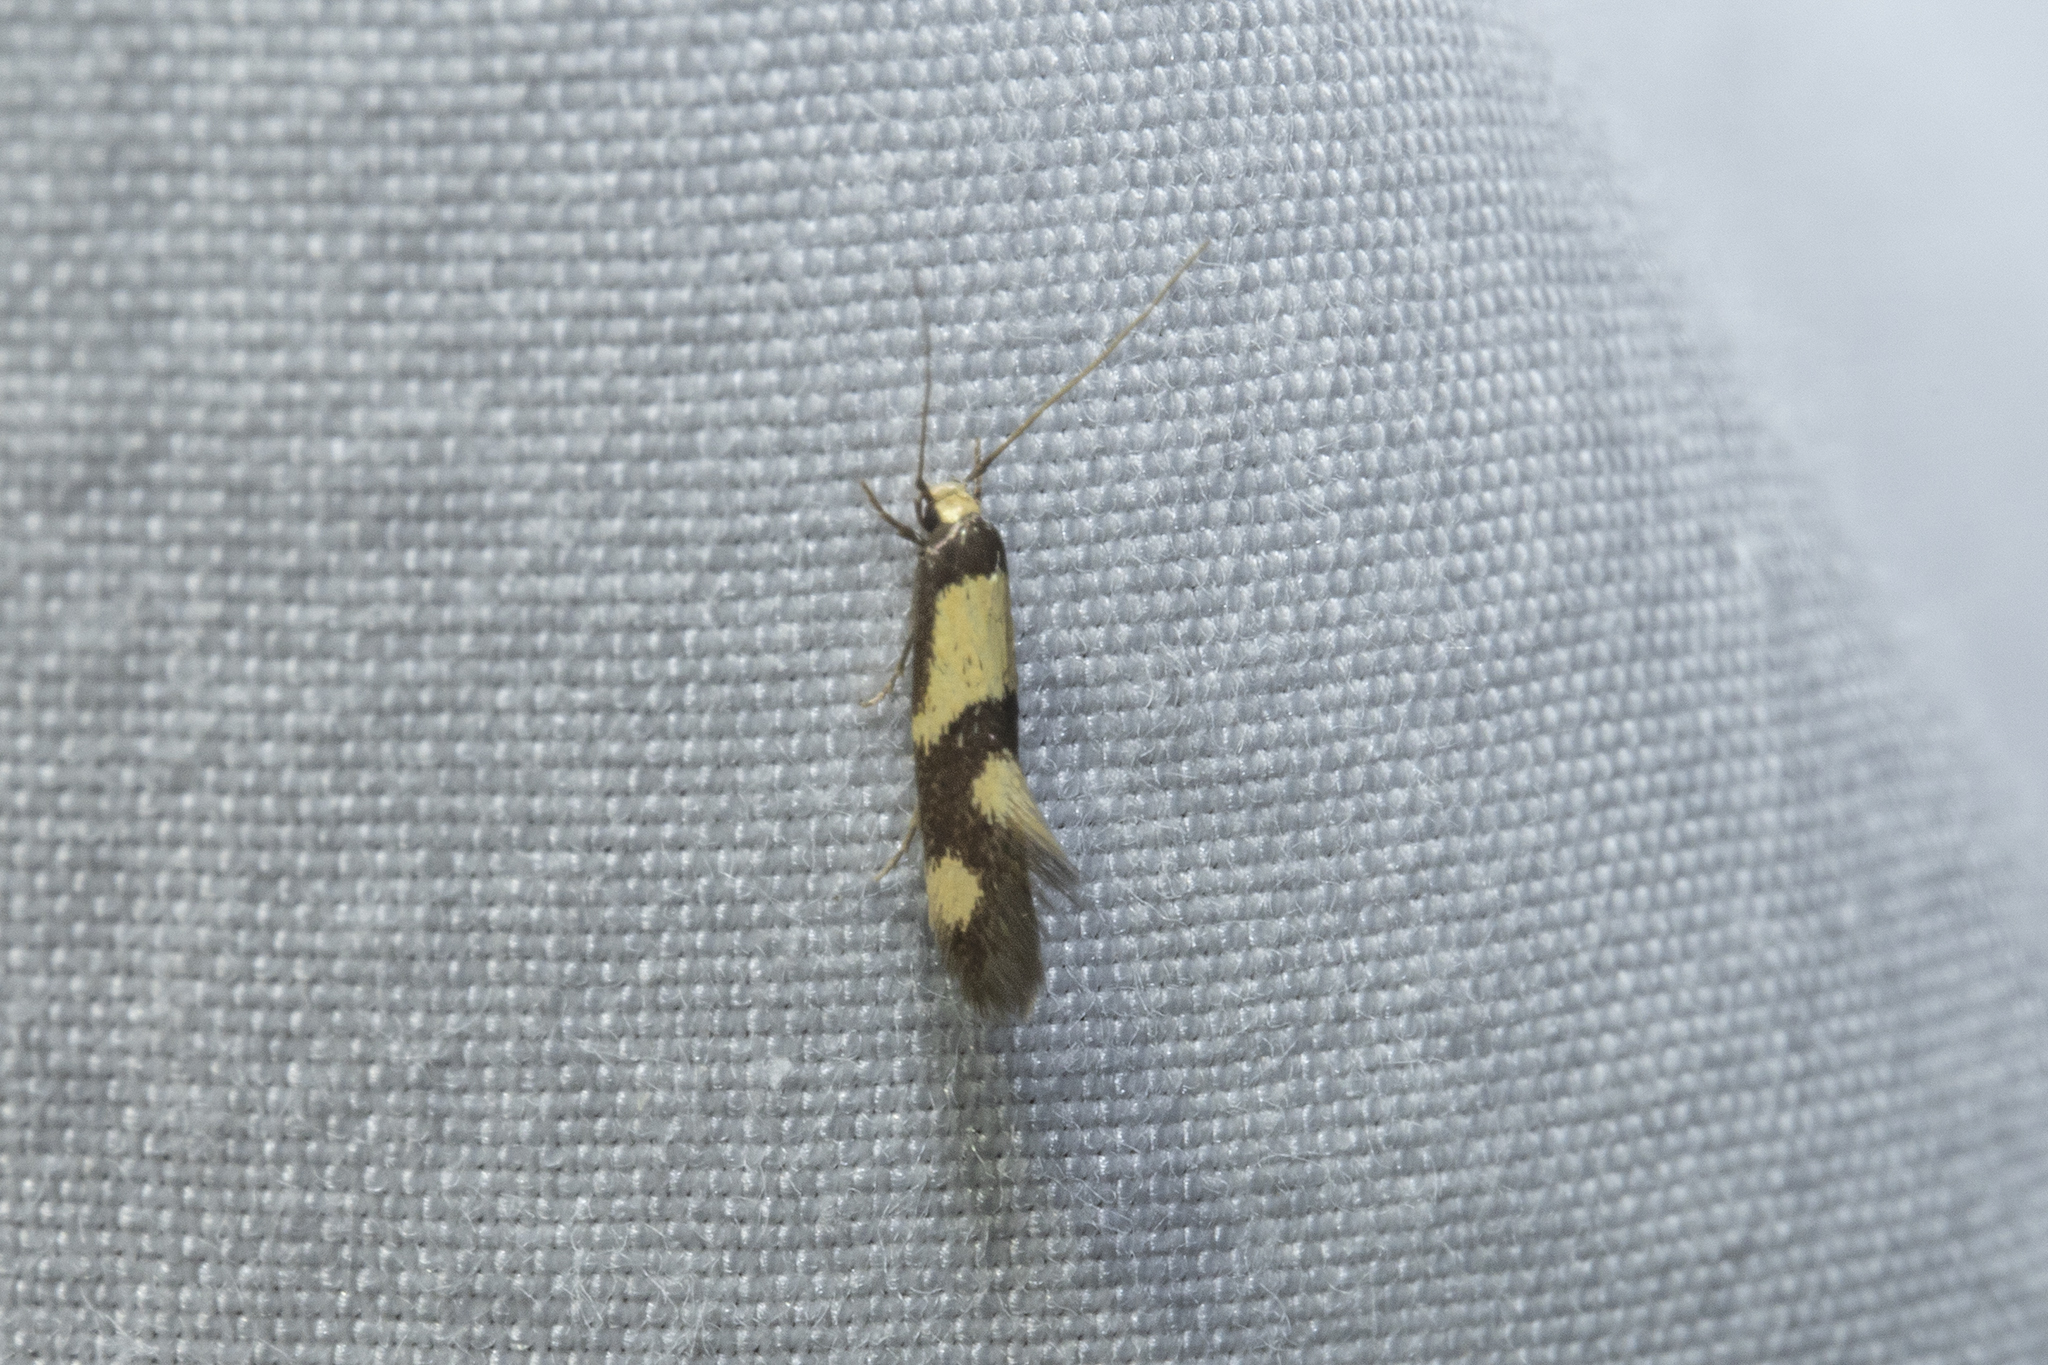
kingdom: Animalia
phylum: Arthropoda
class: Insecta
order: Lepidoptera
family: Tineidae
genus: Opogona
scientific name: Opogona comptella
